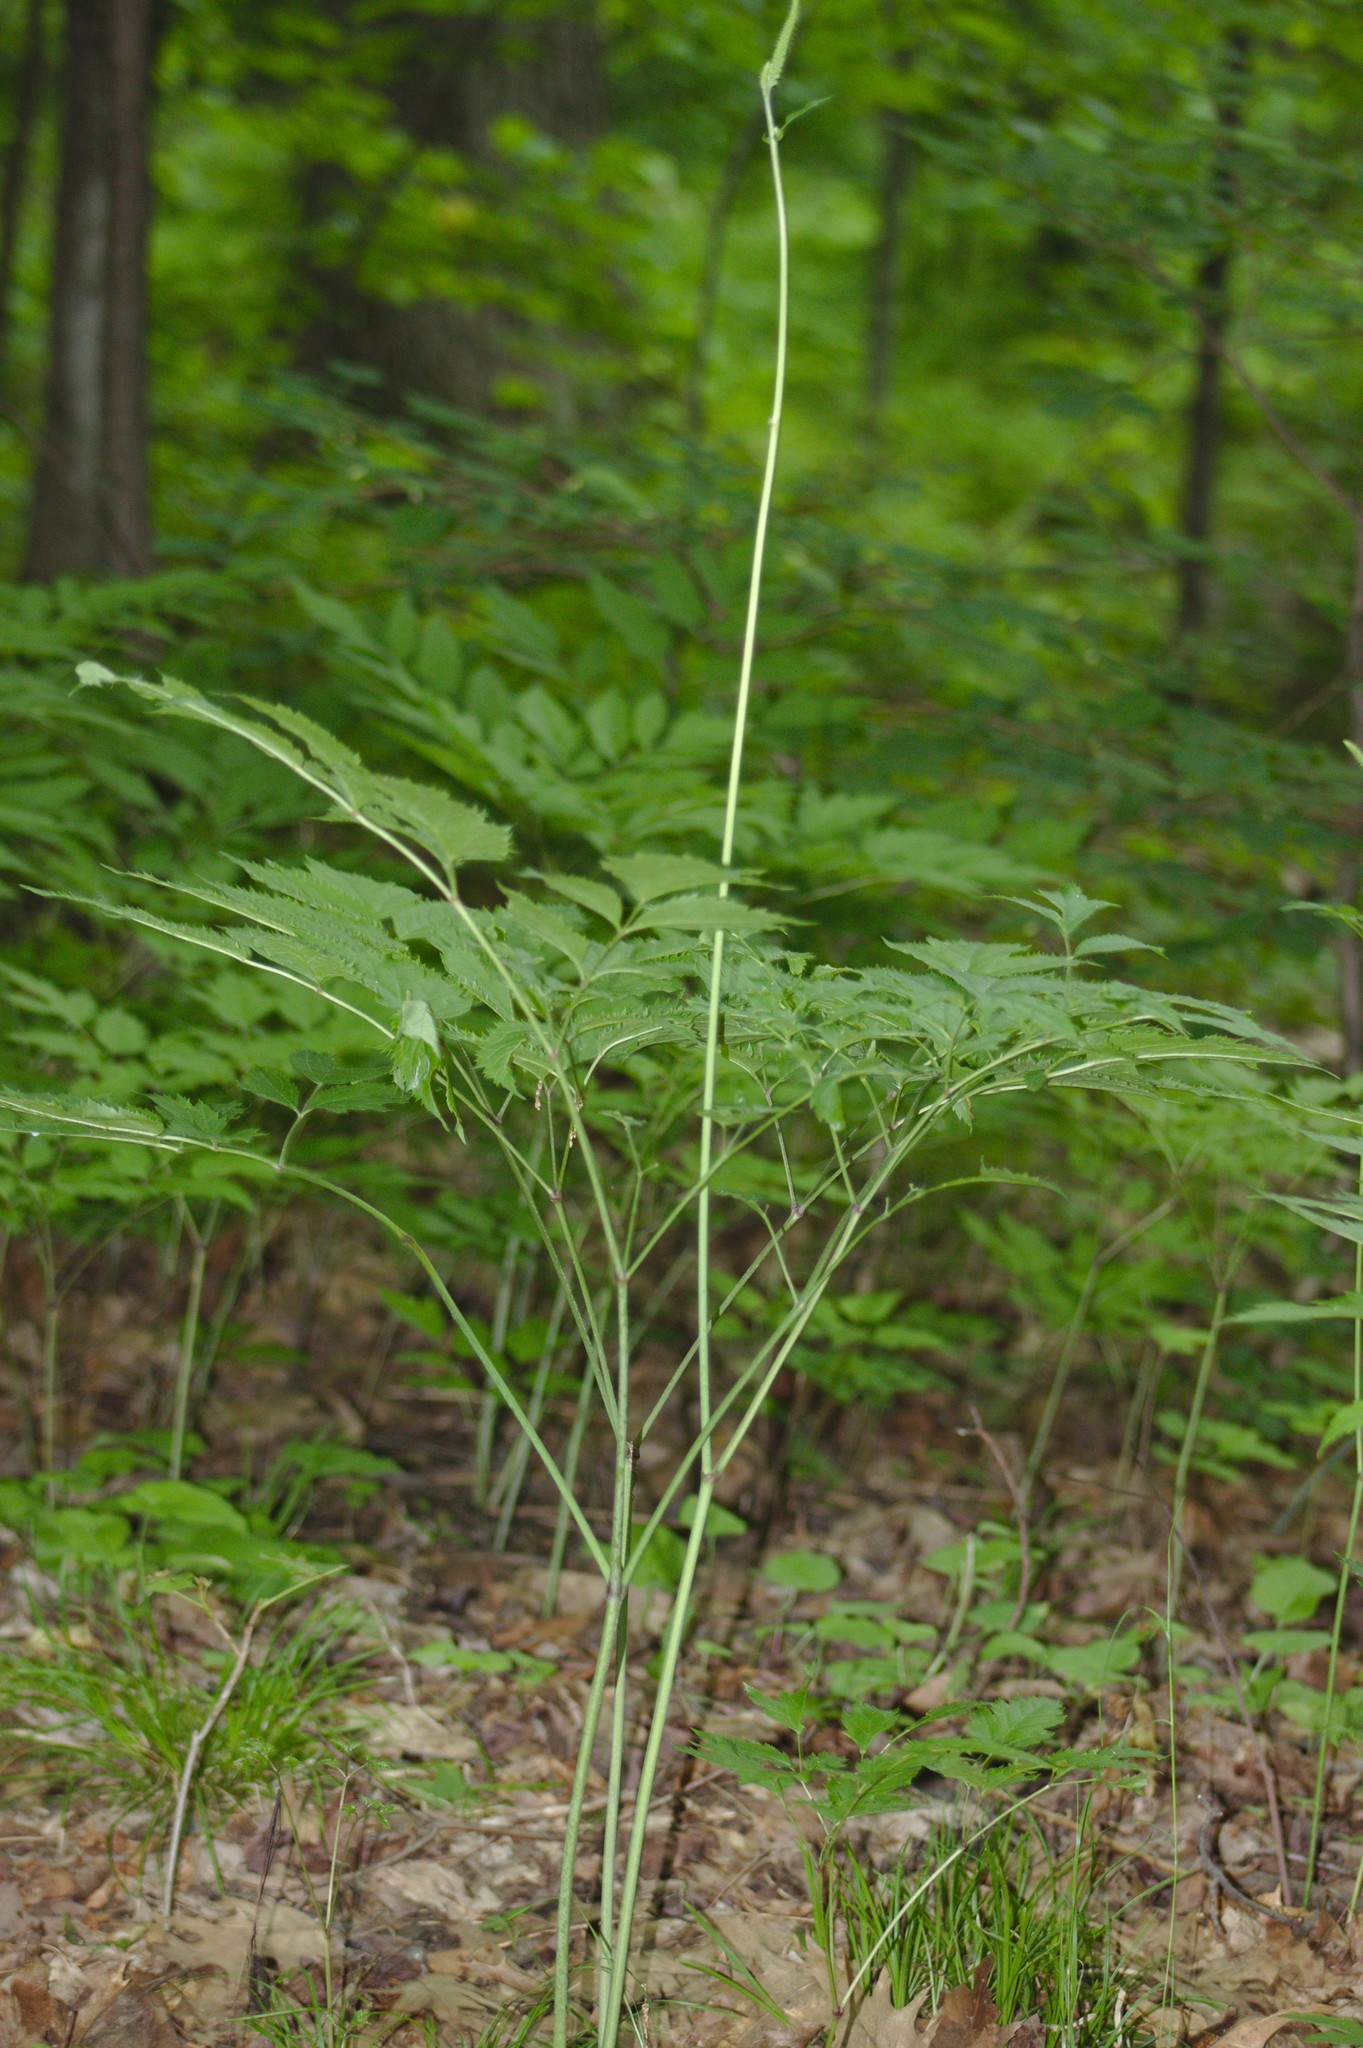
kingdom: Plantae
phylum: Tracheophyta
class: Magnoliopsida
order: Ranunculales
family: Ranunculaceae
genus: Actaea
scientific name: Actaea racemosa
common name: Black cohosh
